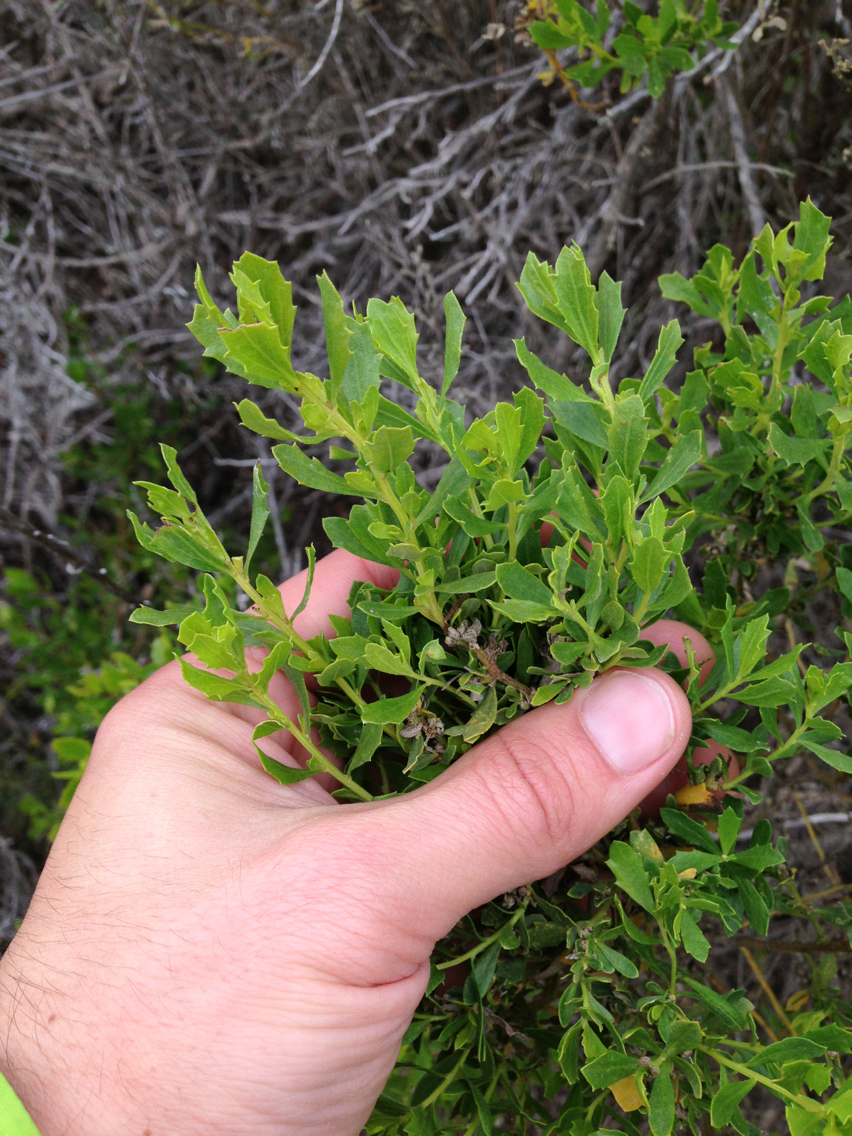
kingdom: Plantae
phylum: Tracheophyta
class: Magnoliopsida
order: Asterales
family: Asteraceae
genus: Baccharis
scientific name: Baccharis pilularis
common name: Coyotebrush
